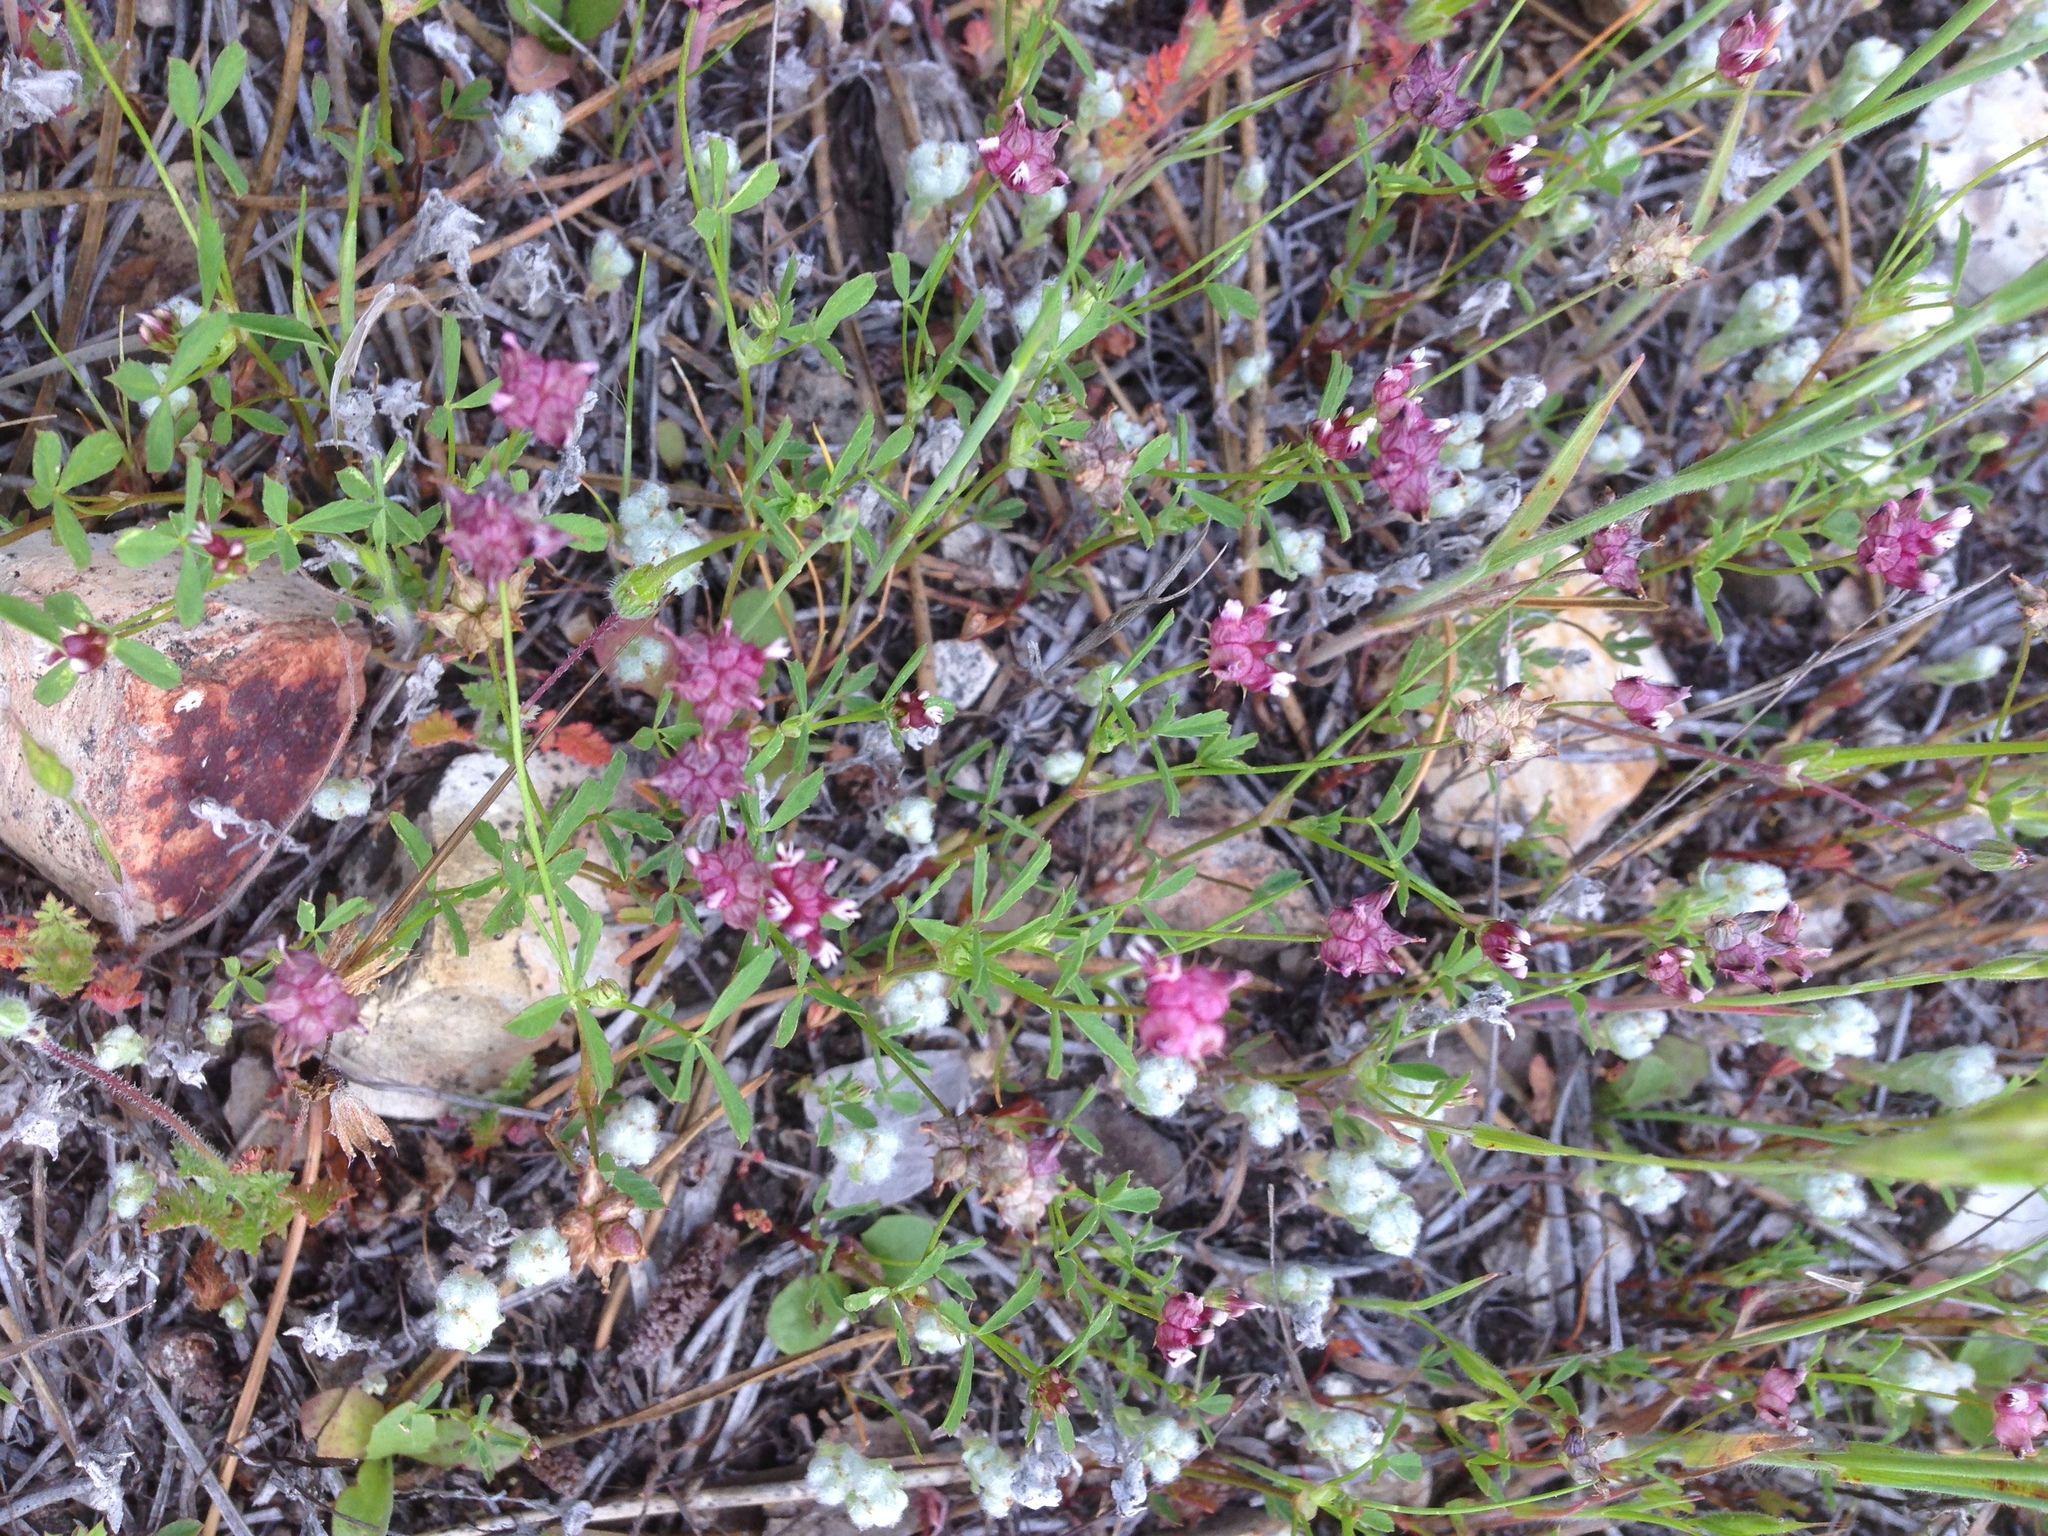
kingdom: Plantae
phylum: Tracheophyta
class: Magnoliopsida
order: Fabales
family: Fabaceae
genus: Trifolium
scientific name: Trifolium depauperatum
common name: Poverty clover
